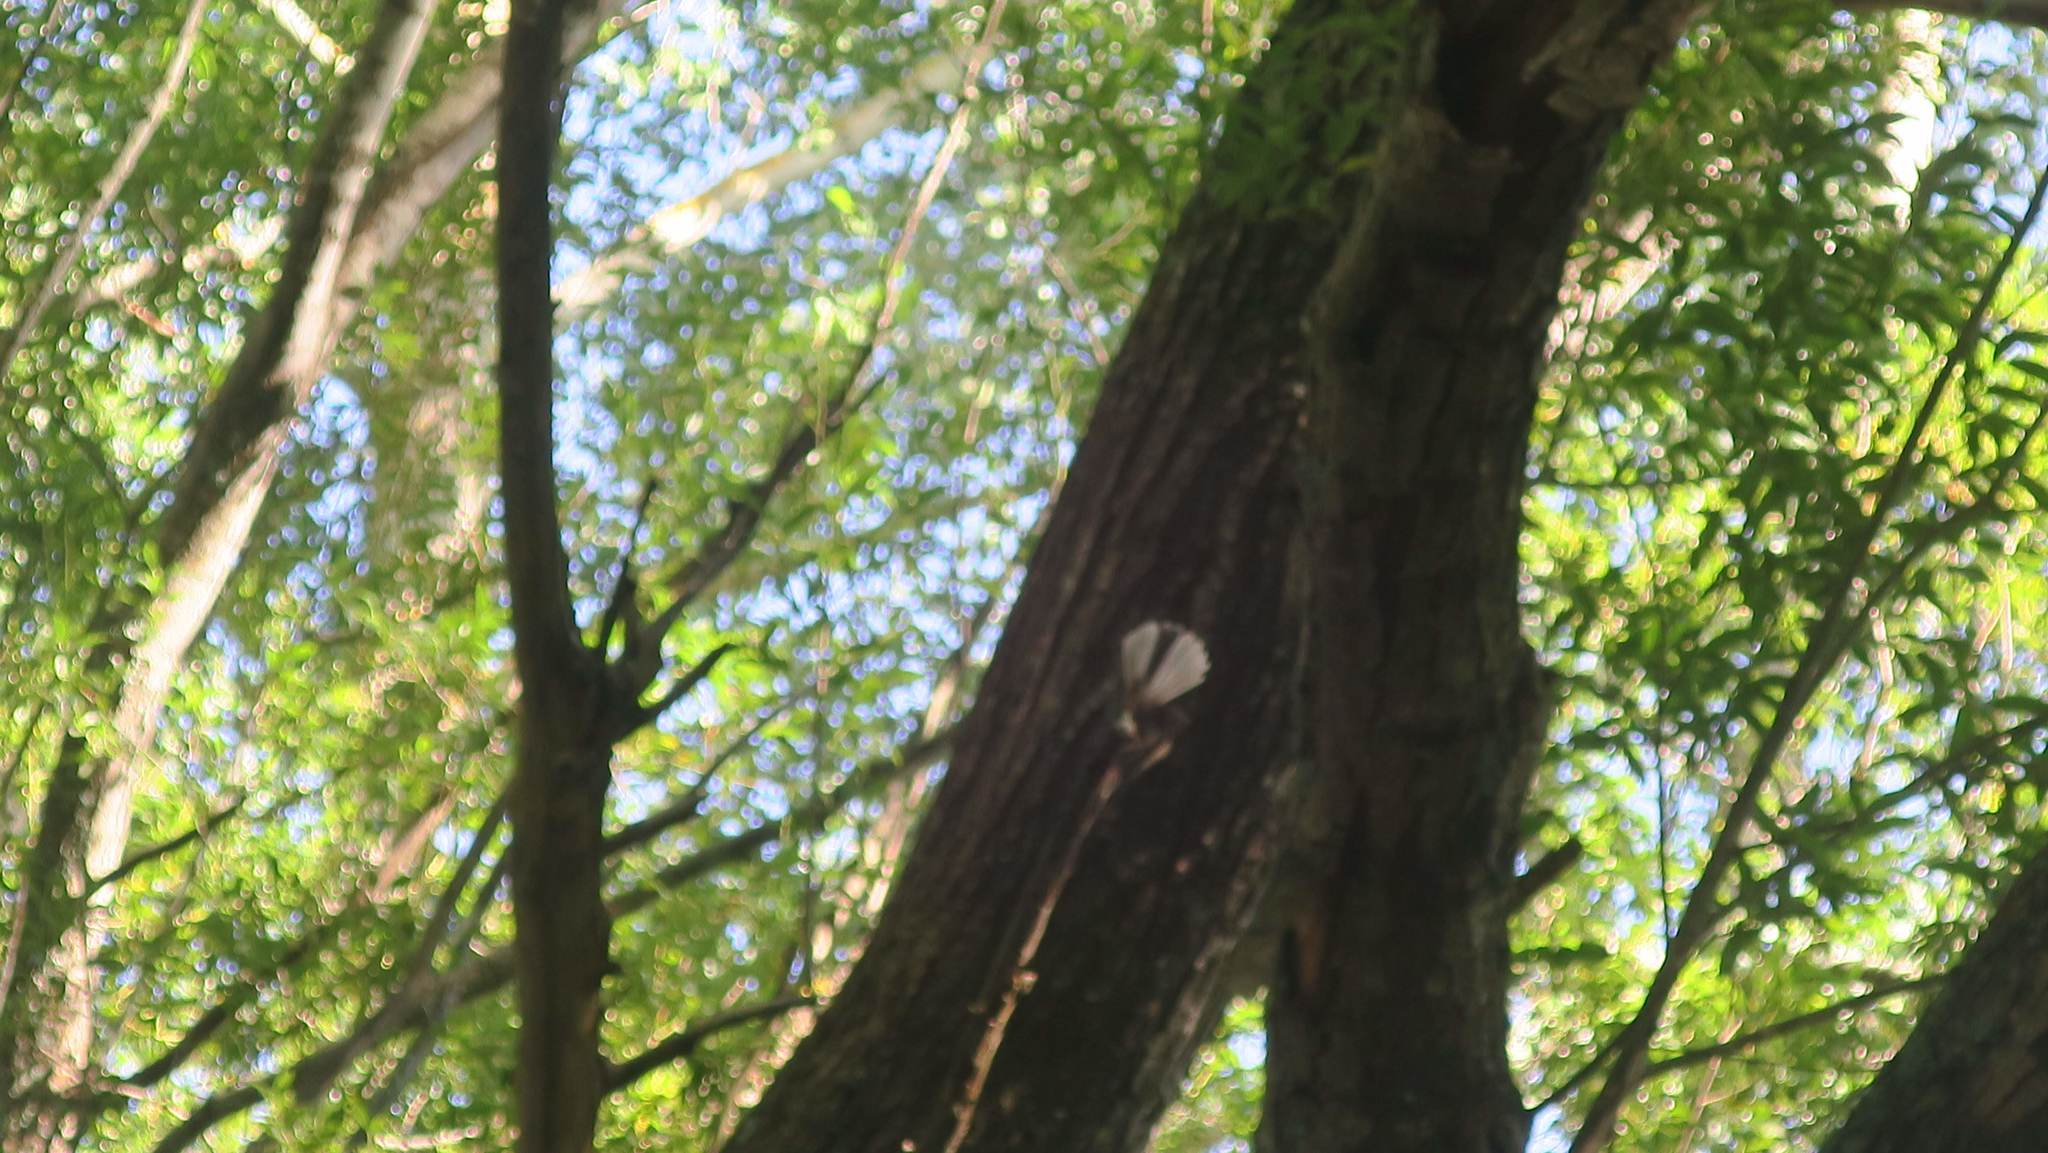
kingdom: Animalia
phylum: Chordata
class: Aves
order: Passeriformes
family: Rhipiduridae
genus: Rhipidura
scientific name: Rhipidura fuliginosa
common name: New zealand fantail
